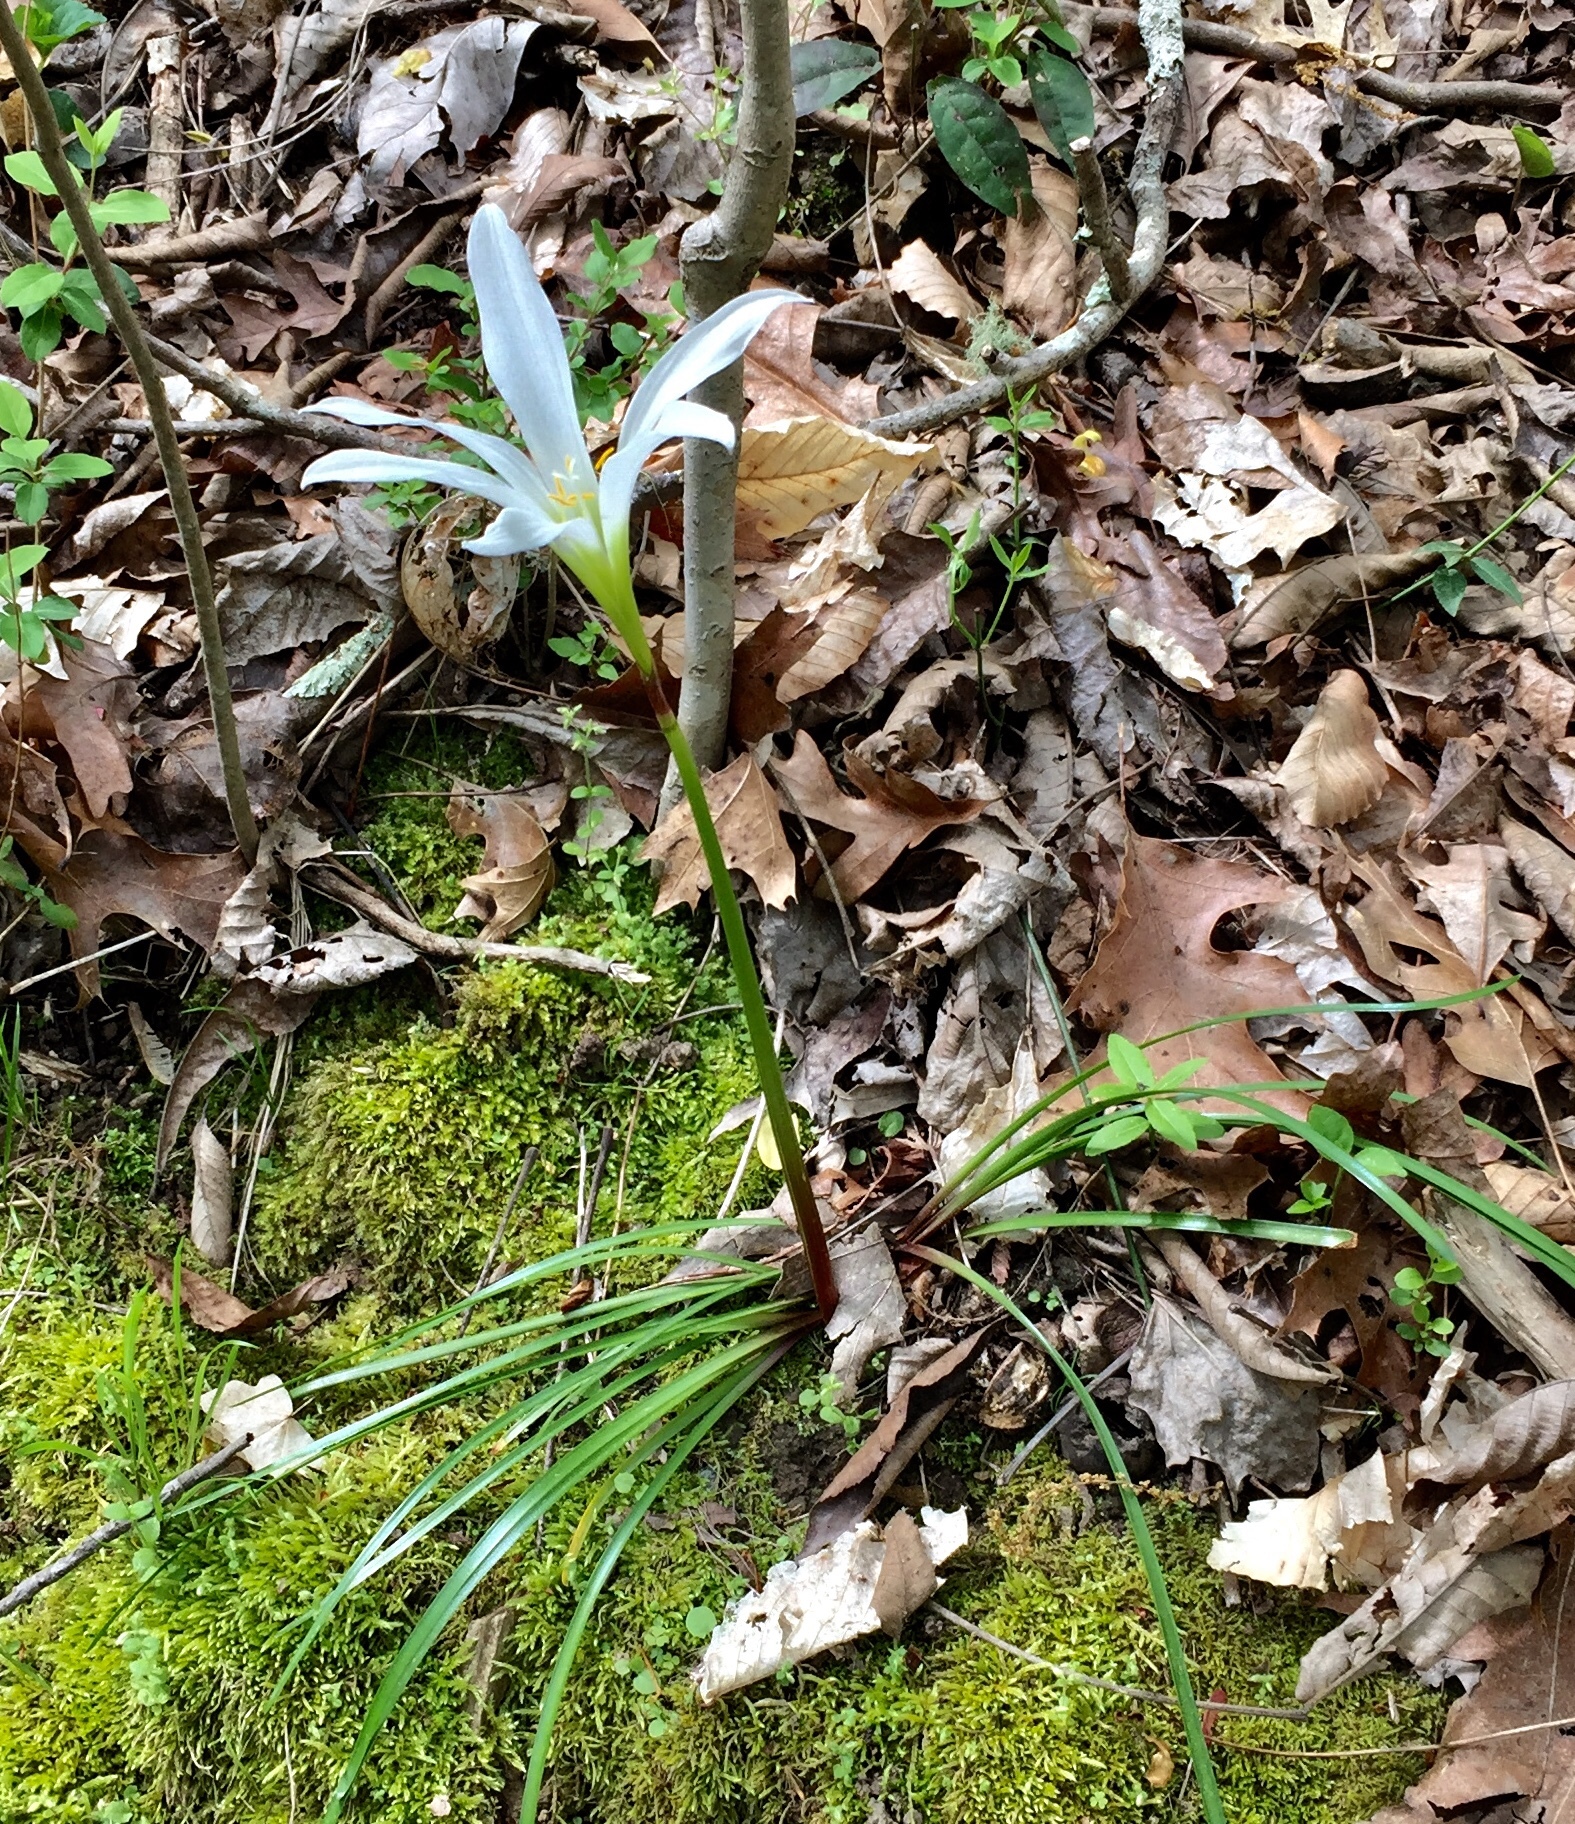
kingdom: Plantae
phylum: Tracheophyta
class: Liliopsida
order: Asparagales
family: Amaryllidaceae
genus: Zephyranthes
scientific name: Zephyranthes atamasco
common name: Atamasco lily
